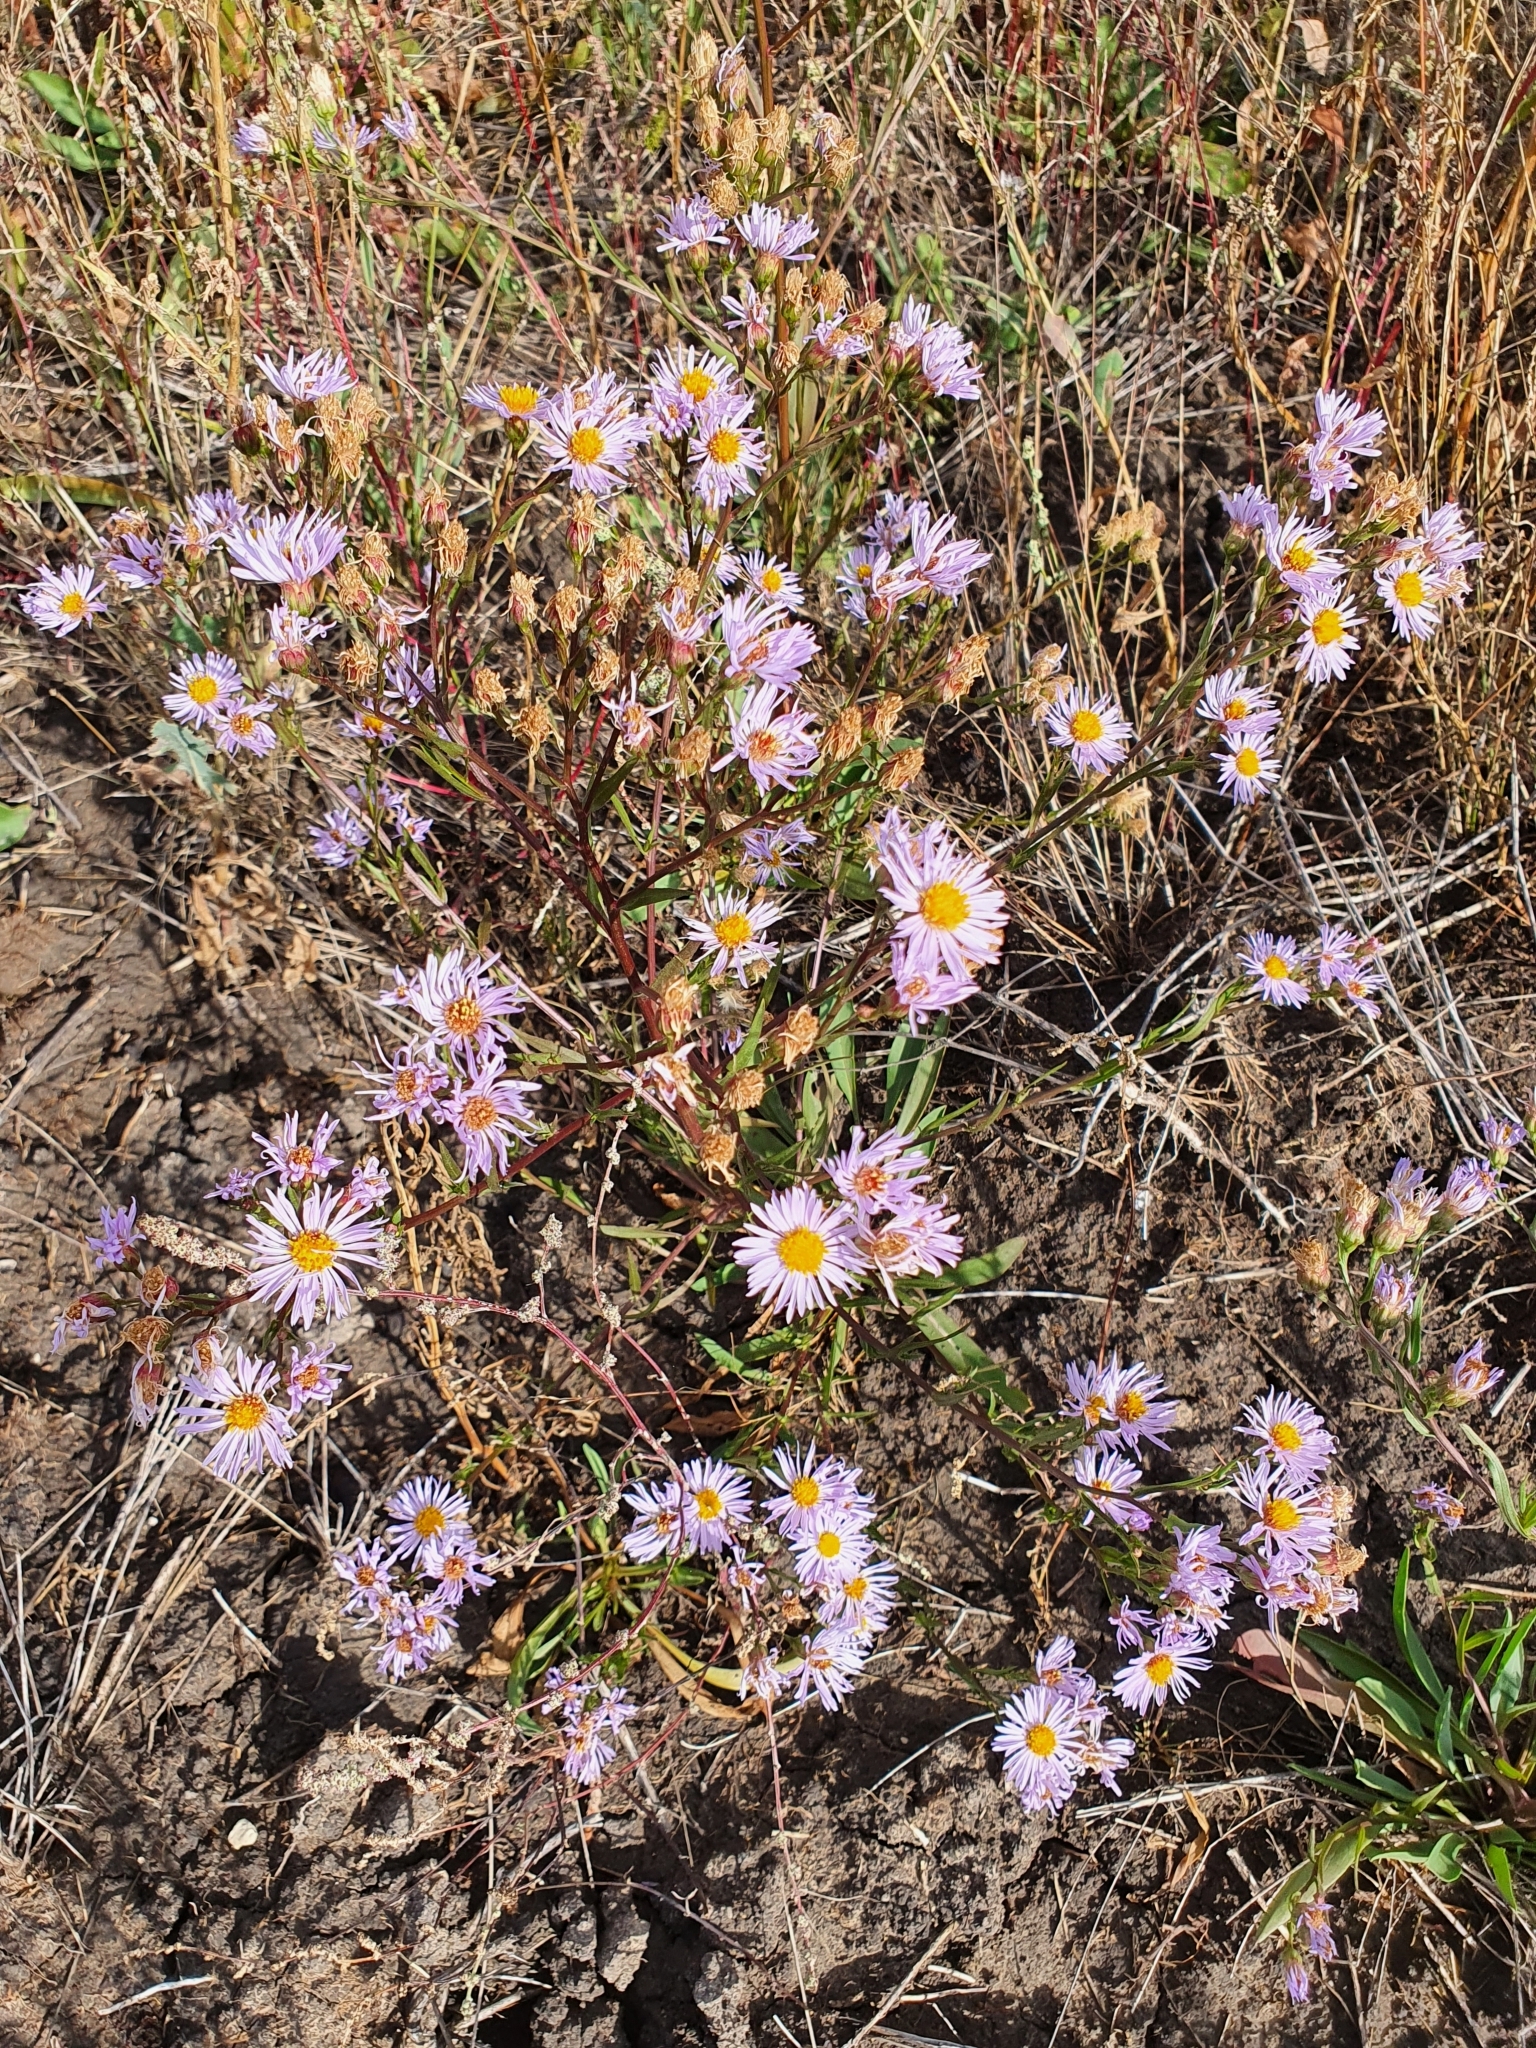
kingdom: Plantae
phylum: Tracheophyta
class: Magnoliopsida
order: Asterales
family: Asteraceae
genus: Tripolium
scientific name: Tripolium pannonicum
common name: Sea aster
